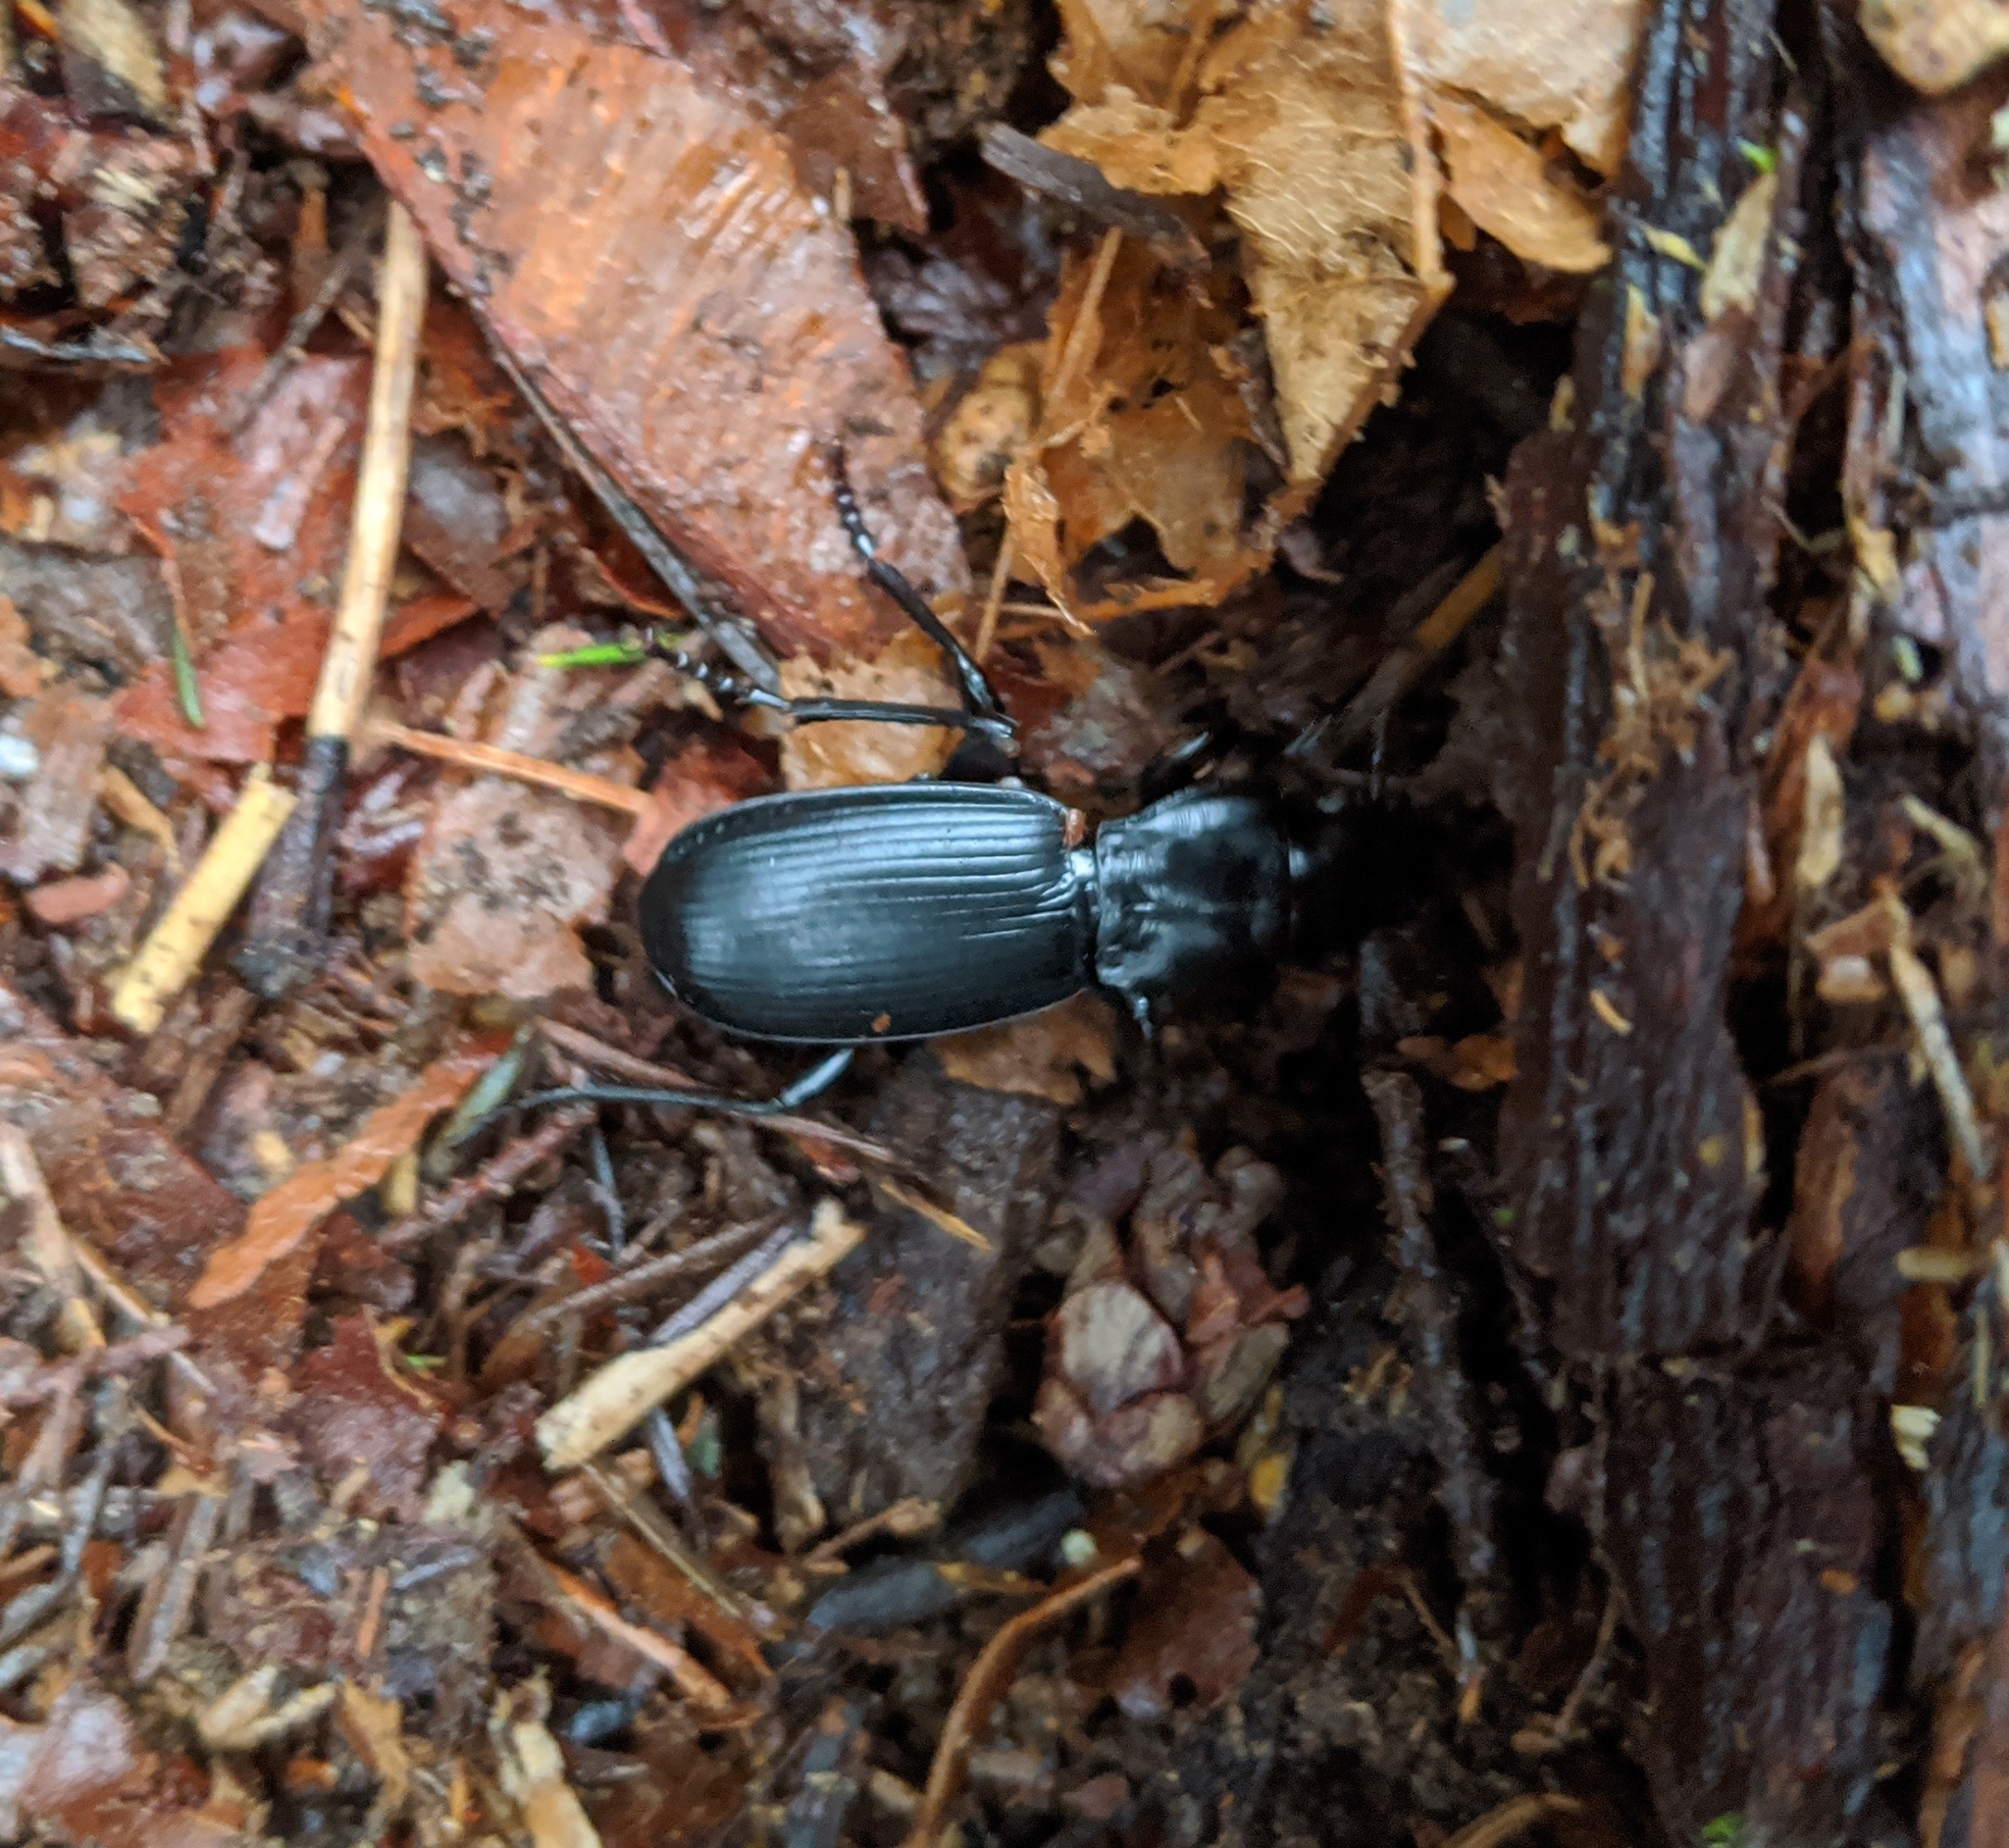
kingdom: Animalia
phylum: Arthropoda
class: Insecta
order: Coleoptera
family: Carabidae
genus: Pterostichus
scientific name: Pterostichus lama
